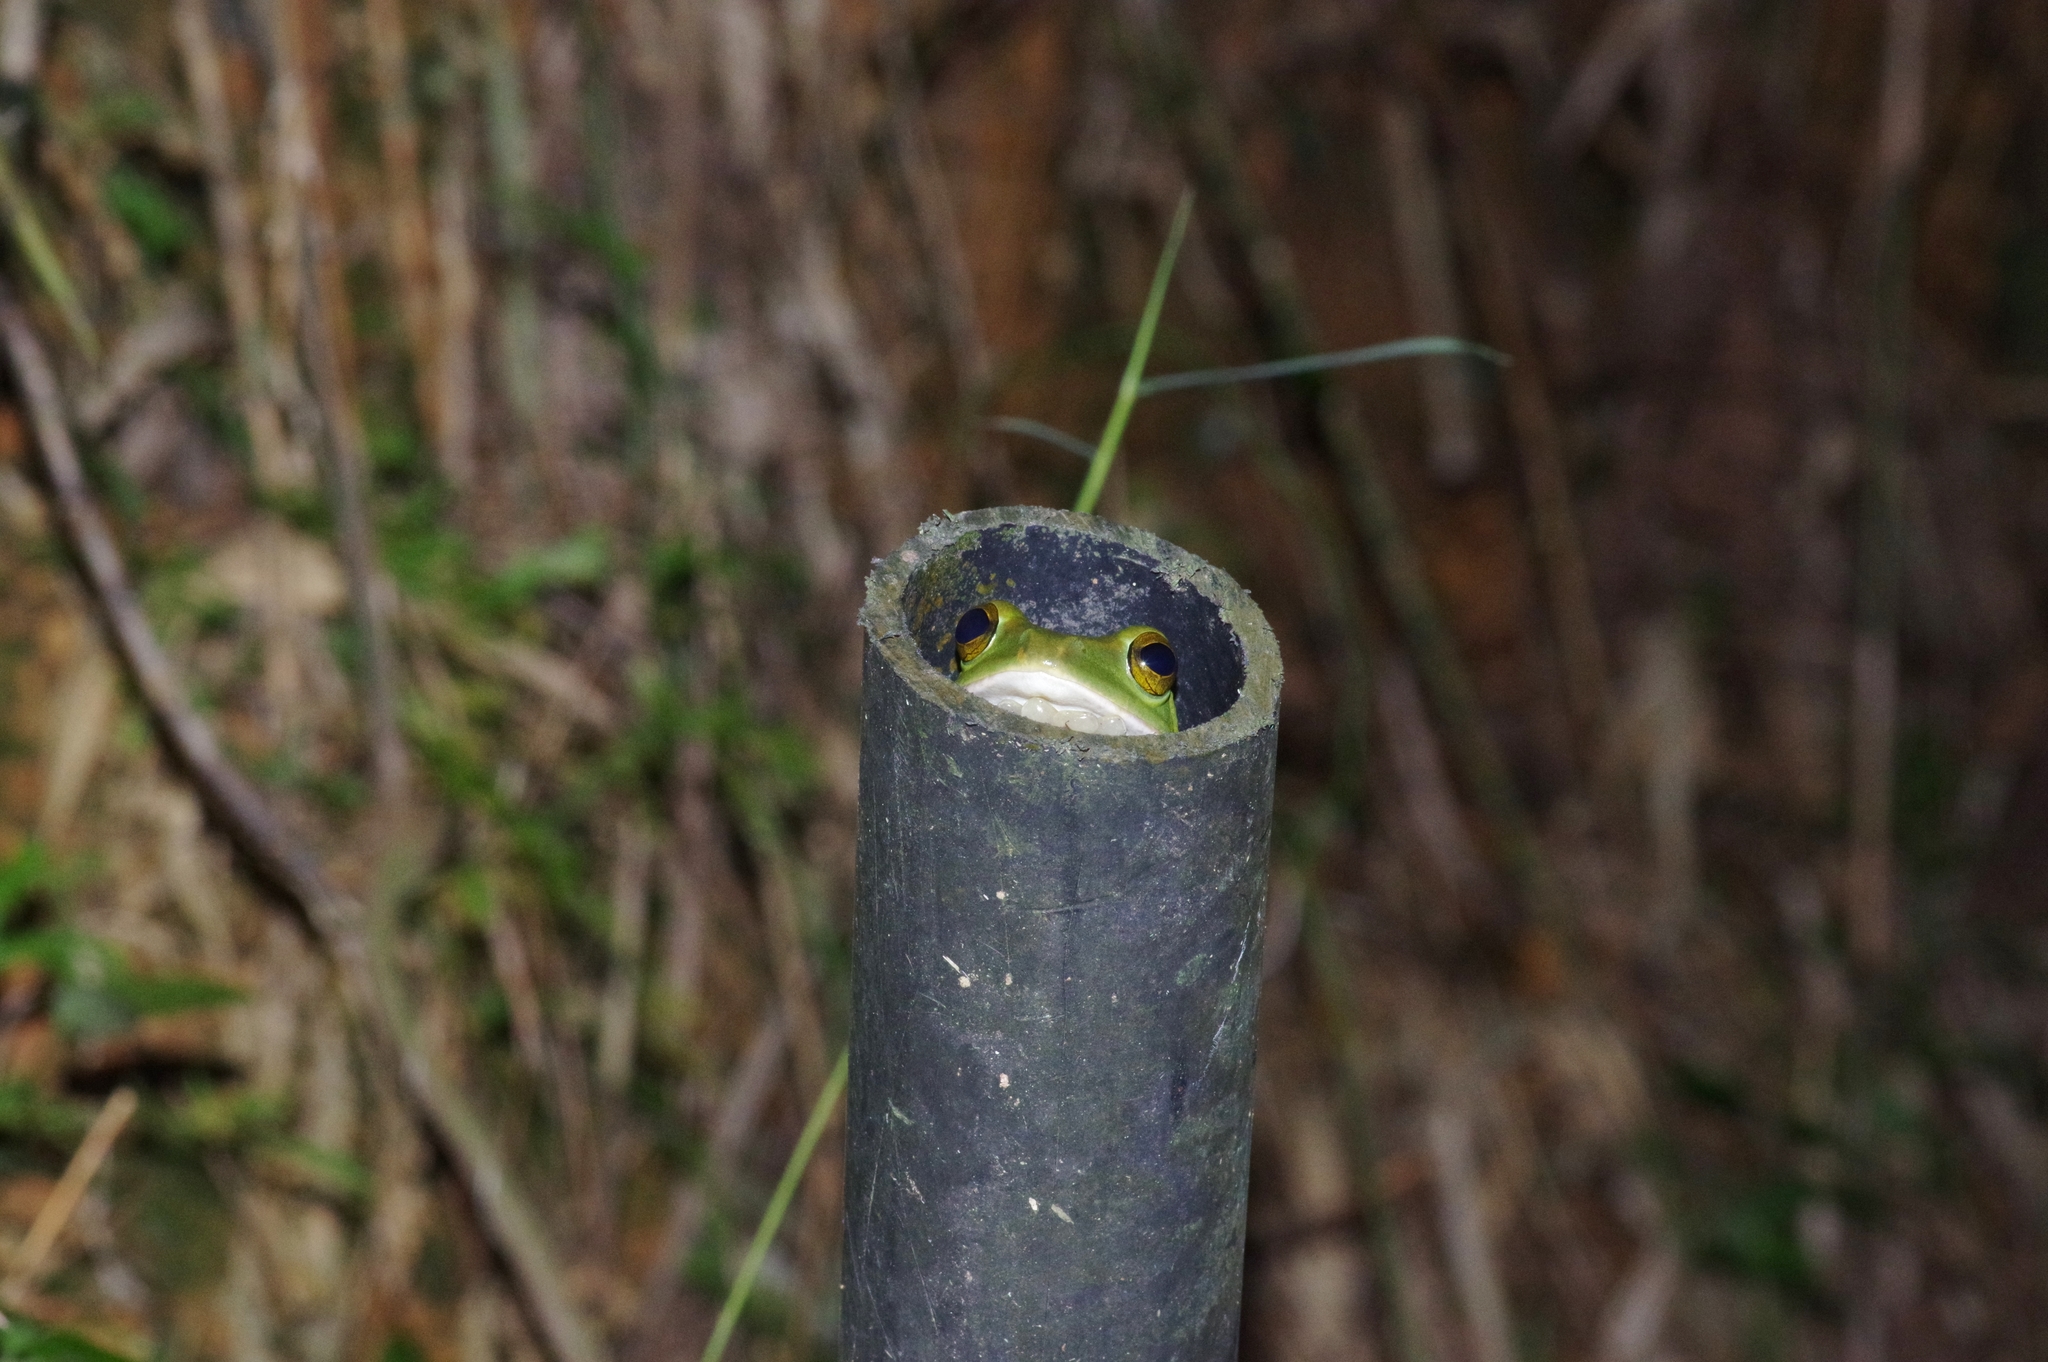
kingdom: Animalia
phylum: Chordata
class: Amphibia
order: Anura
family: Rhacophoridae
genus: Zhangixalus
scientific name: Zhangixalus viridis
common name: Green flying frog
